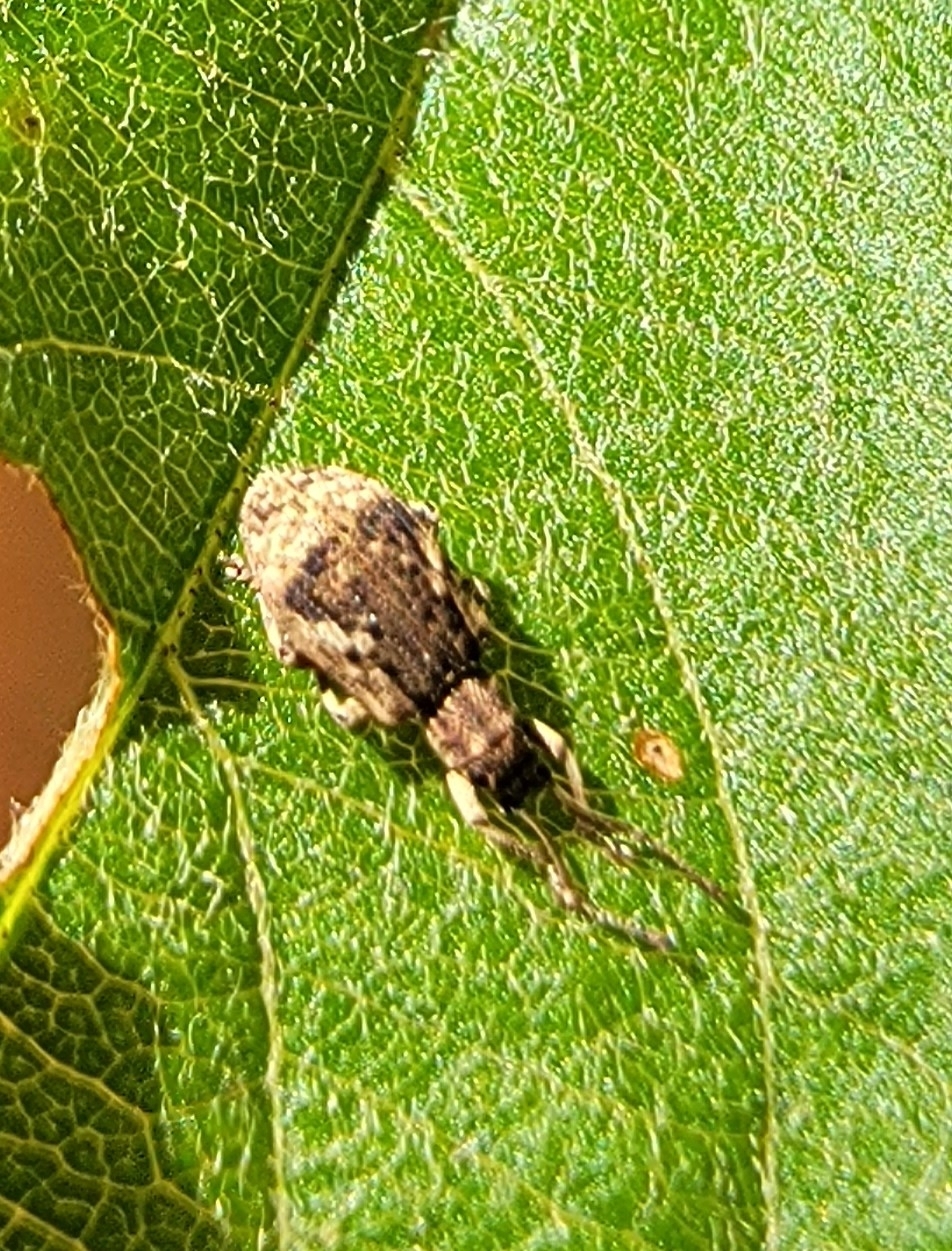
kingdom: Animalia
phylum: Arthropoda
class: Insecta
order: Coleoptera
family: Curculionidae
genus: Pseudoedophrys
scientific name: Pseudoedophrys hilleri
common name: Weevil
